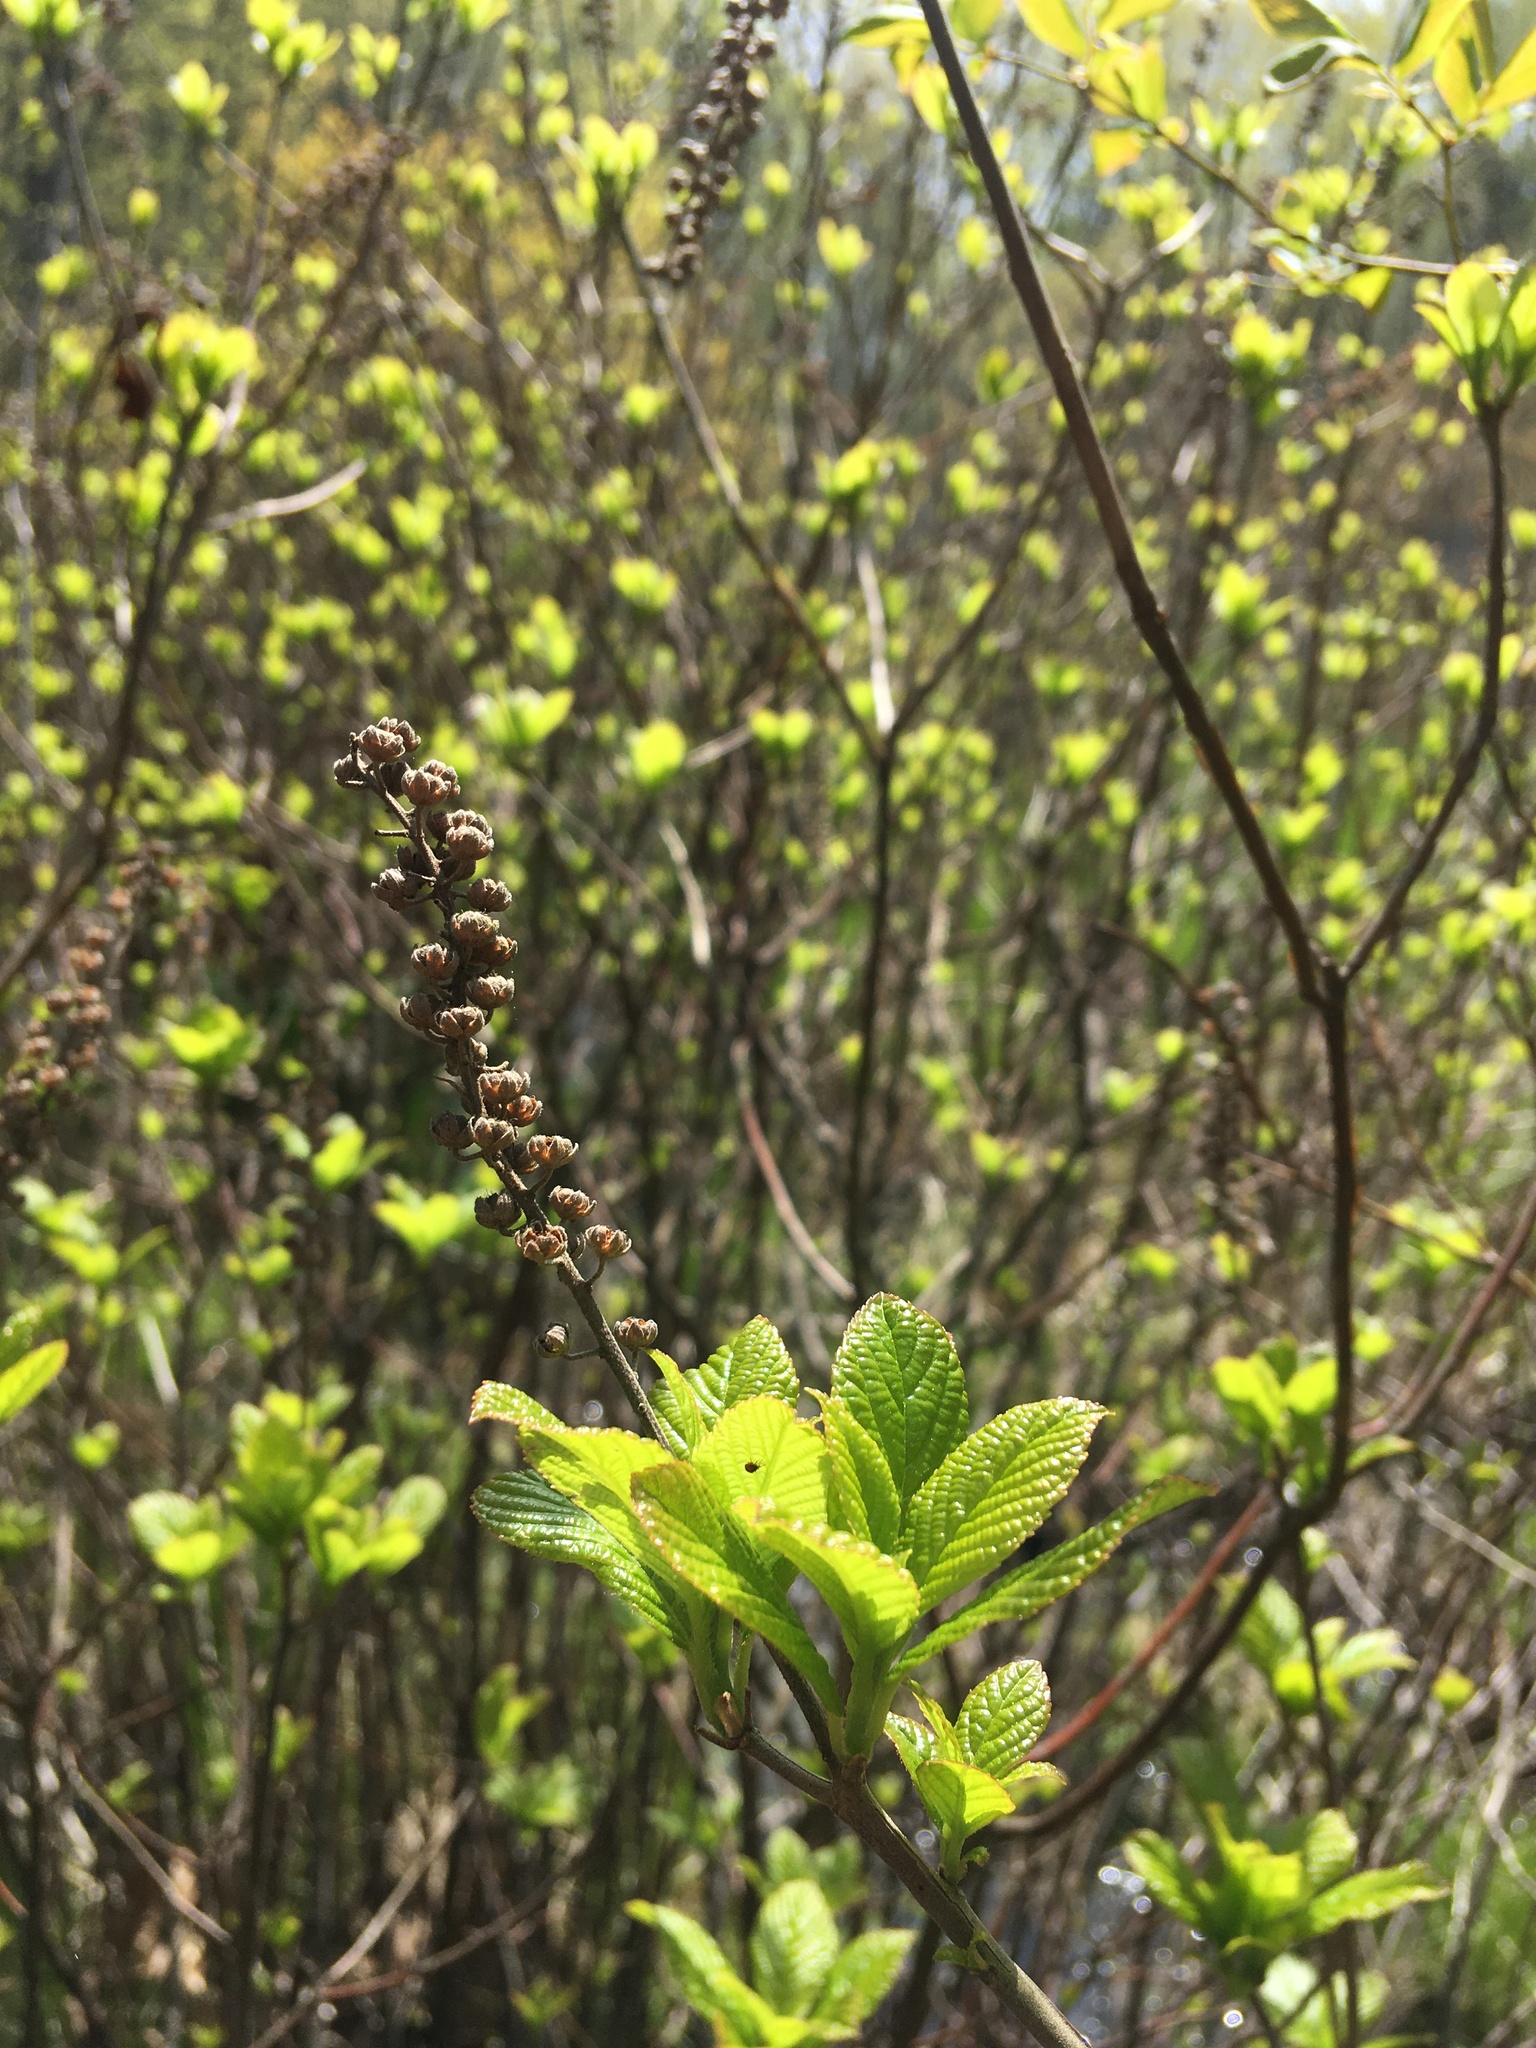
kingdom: Plantae
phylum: Tracheophyta
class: Magnoliopsida
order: Ericales
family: Clethraceae
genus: Clethra
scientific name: Clethra alnifolia
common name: Sweet pepperbush
